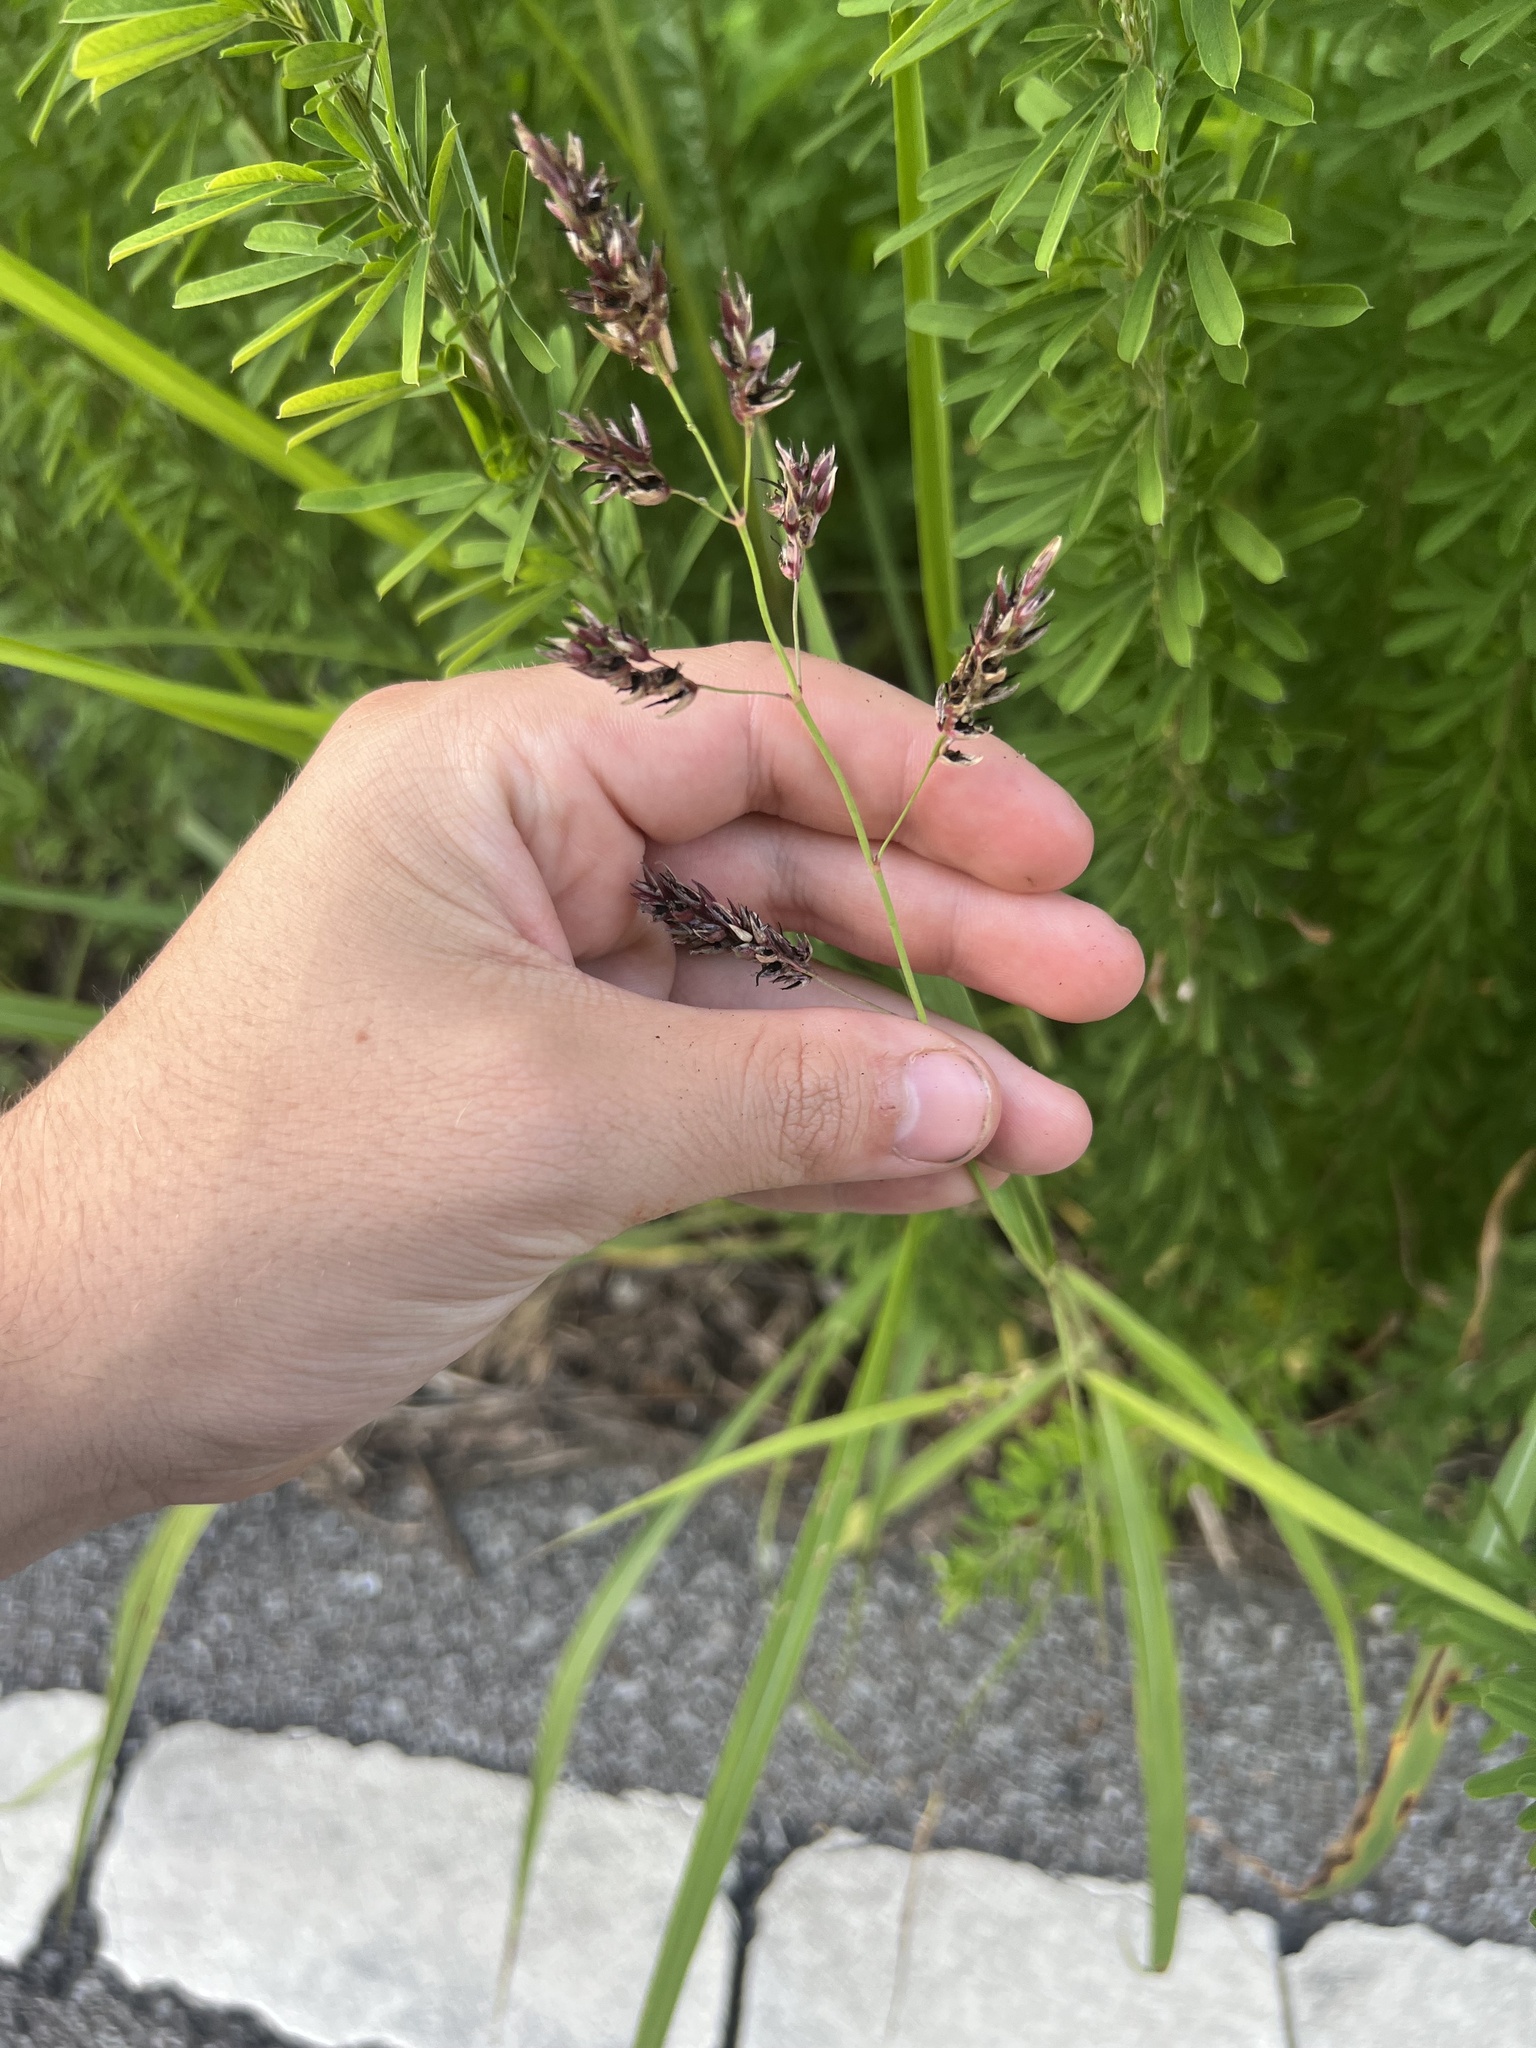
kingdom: Plantae
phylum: Tracheophyta
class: Liliopsida
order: Poales
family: Poaceae
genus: Sorghum
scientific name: Sorghum halepense
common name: Johnson-grass
